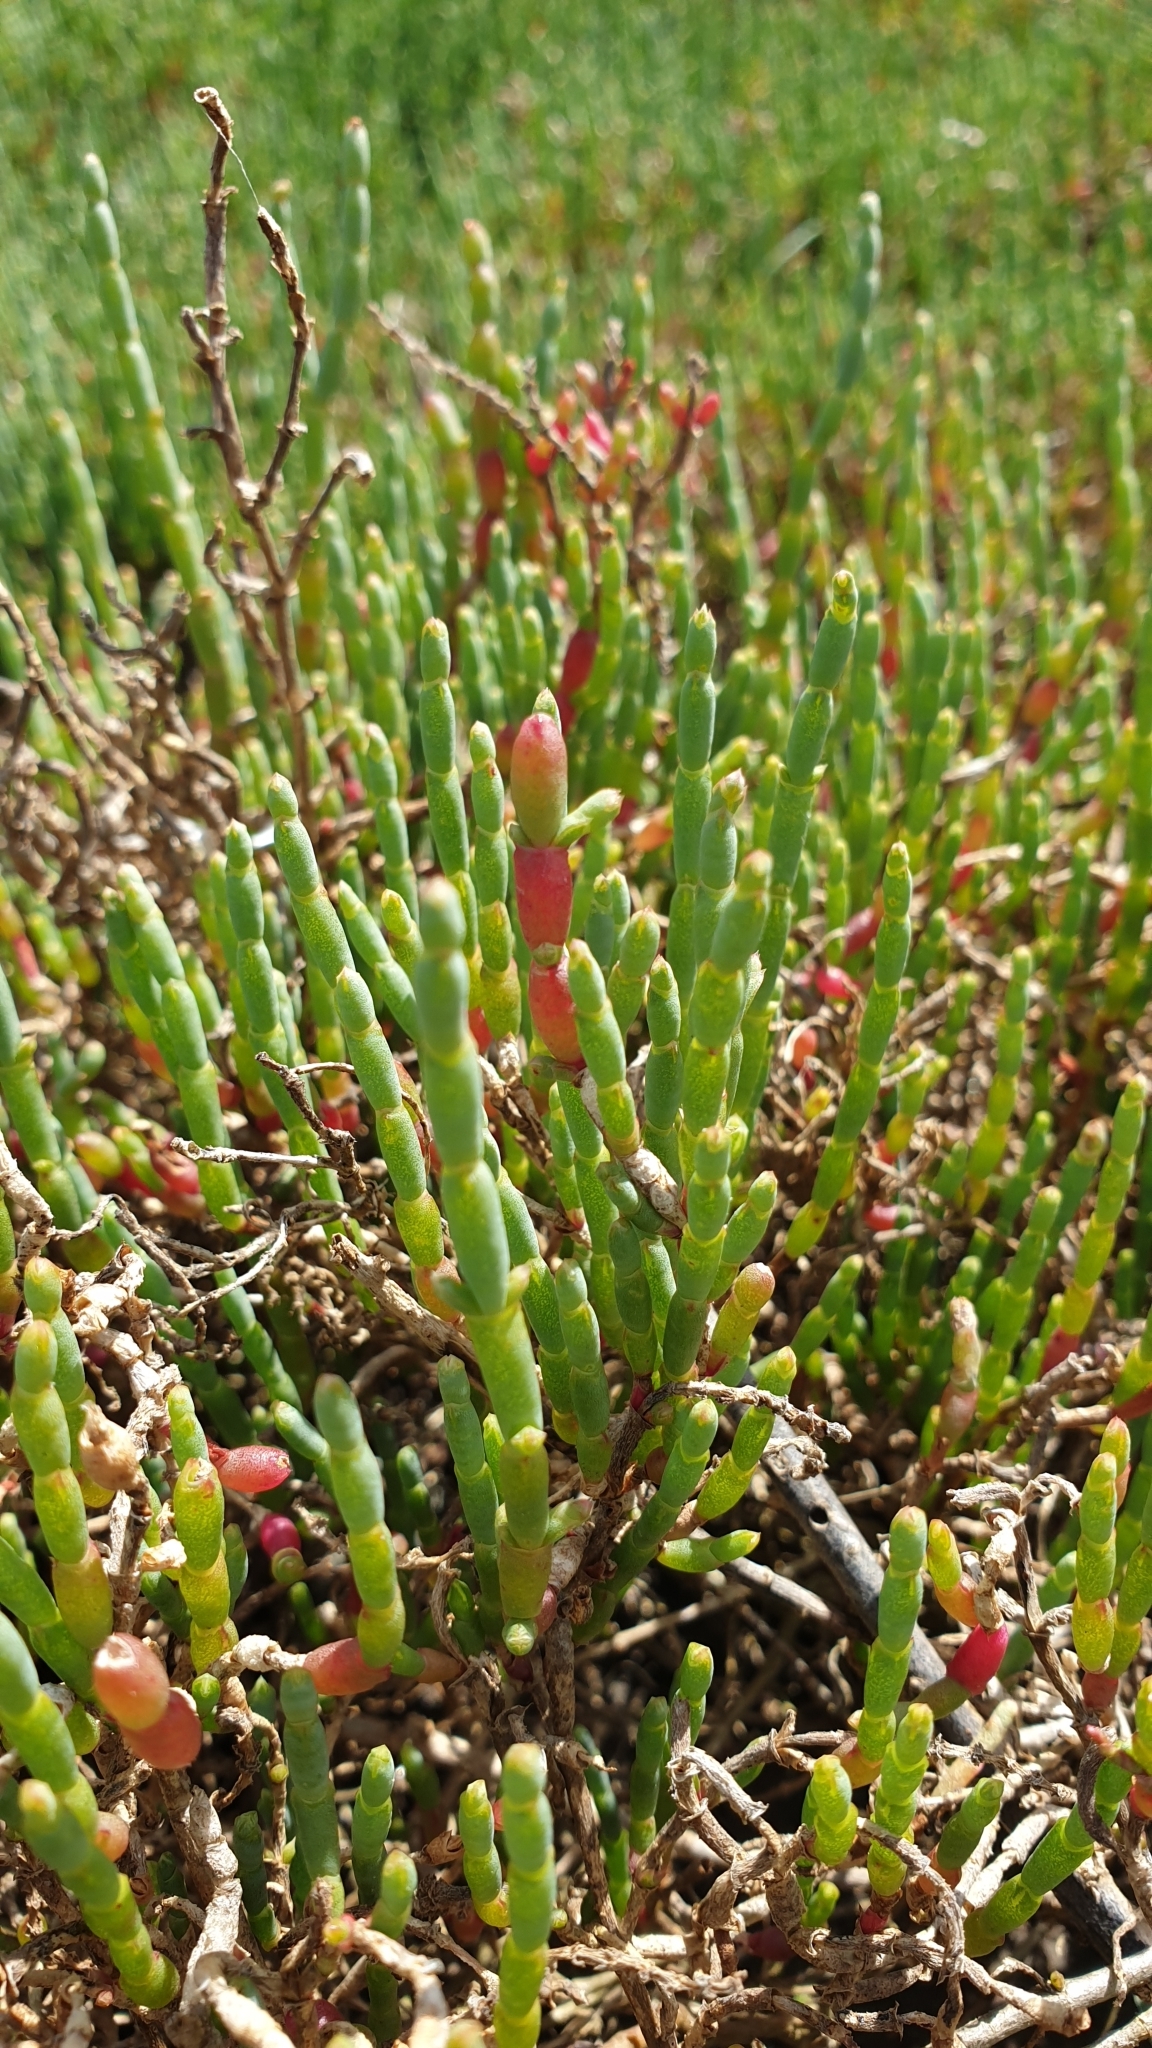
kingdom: Plantae
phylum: Tracheophyta
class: Magnoliopsida
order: Caryophyllales
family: Amaranthaceae
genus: Salicornia
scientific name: Salicornia quinqueflora
